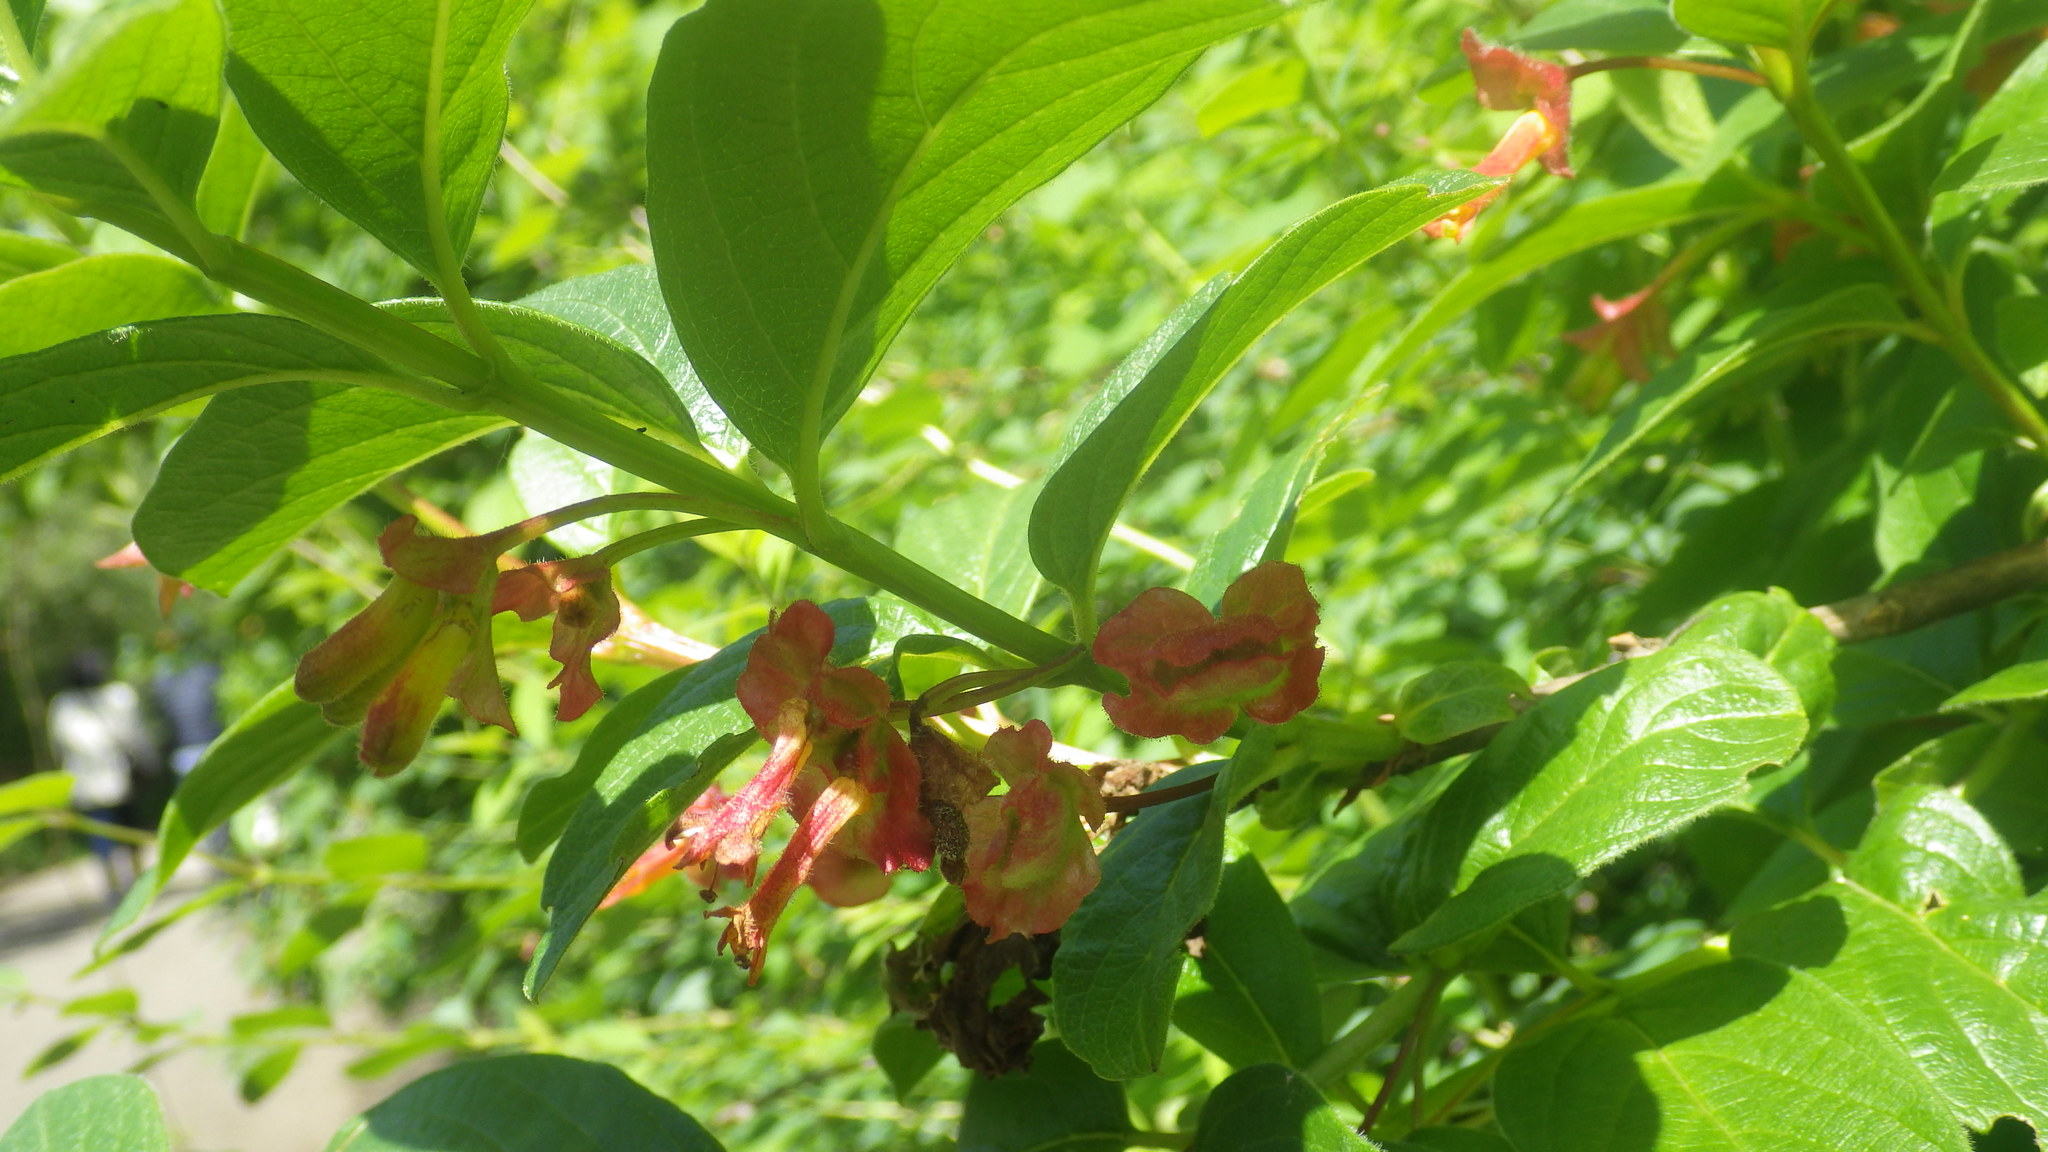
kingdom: Plantae
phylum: Tracheophyta
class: Magnoliopsida
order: Dipsacales
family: Caprifoliaceae
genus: Lonicera
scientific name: Lonicera involucrata
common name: Californian honeysuckle
